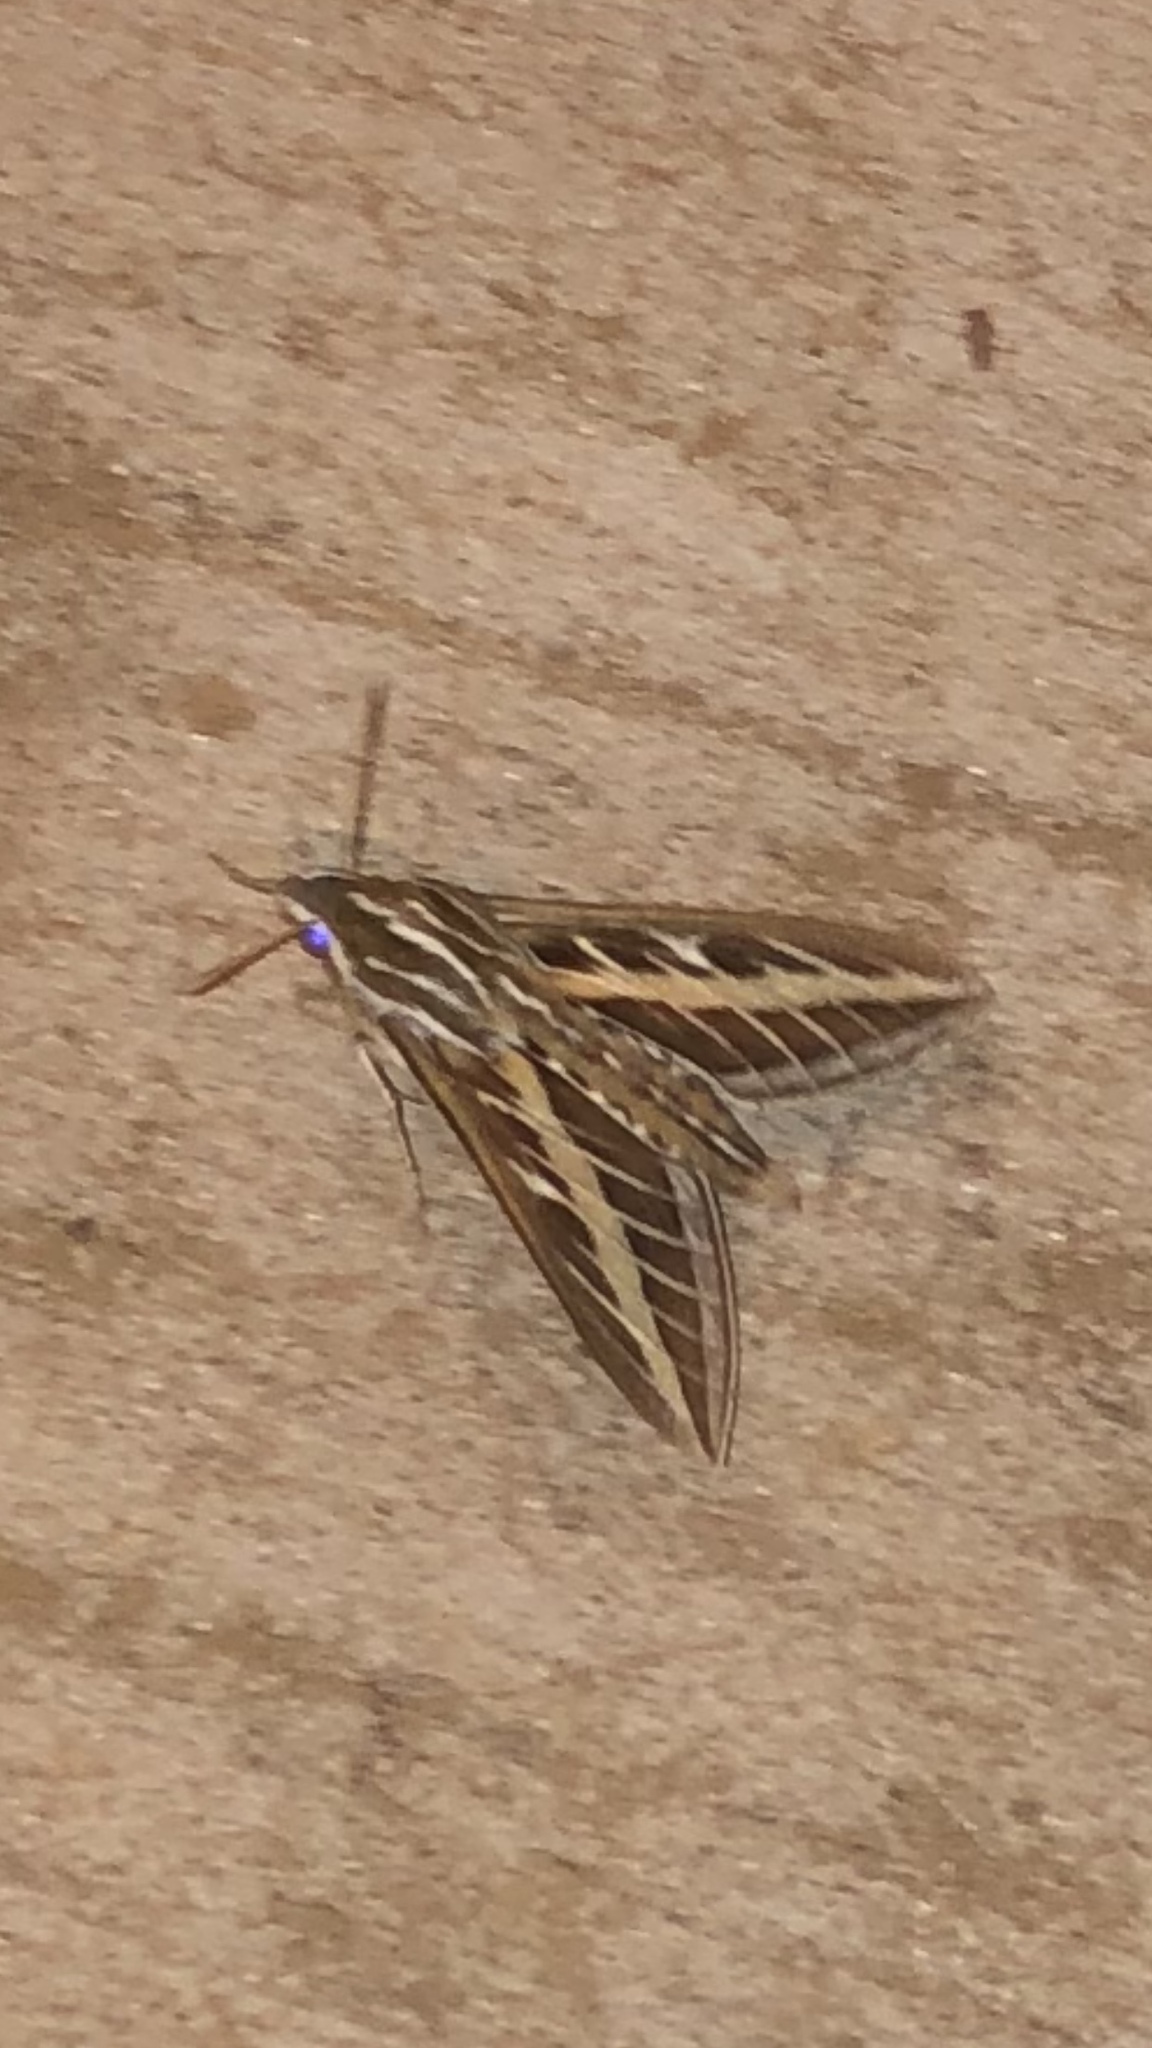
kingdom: Animalia
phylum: Arthropoda
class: Insecta
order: Lepidoptera
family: Sphingidae
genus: Hyles
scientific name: Hyles lineata
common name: White-lined sphinx
